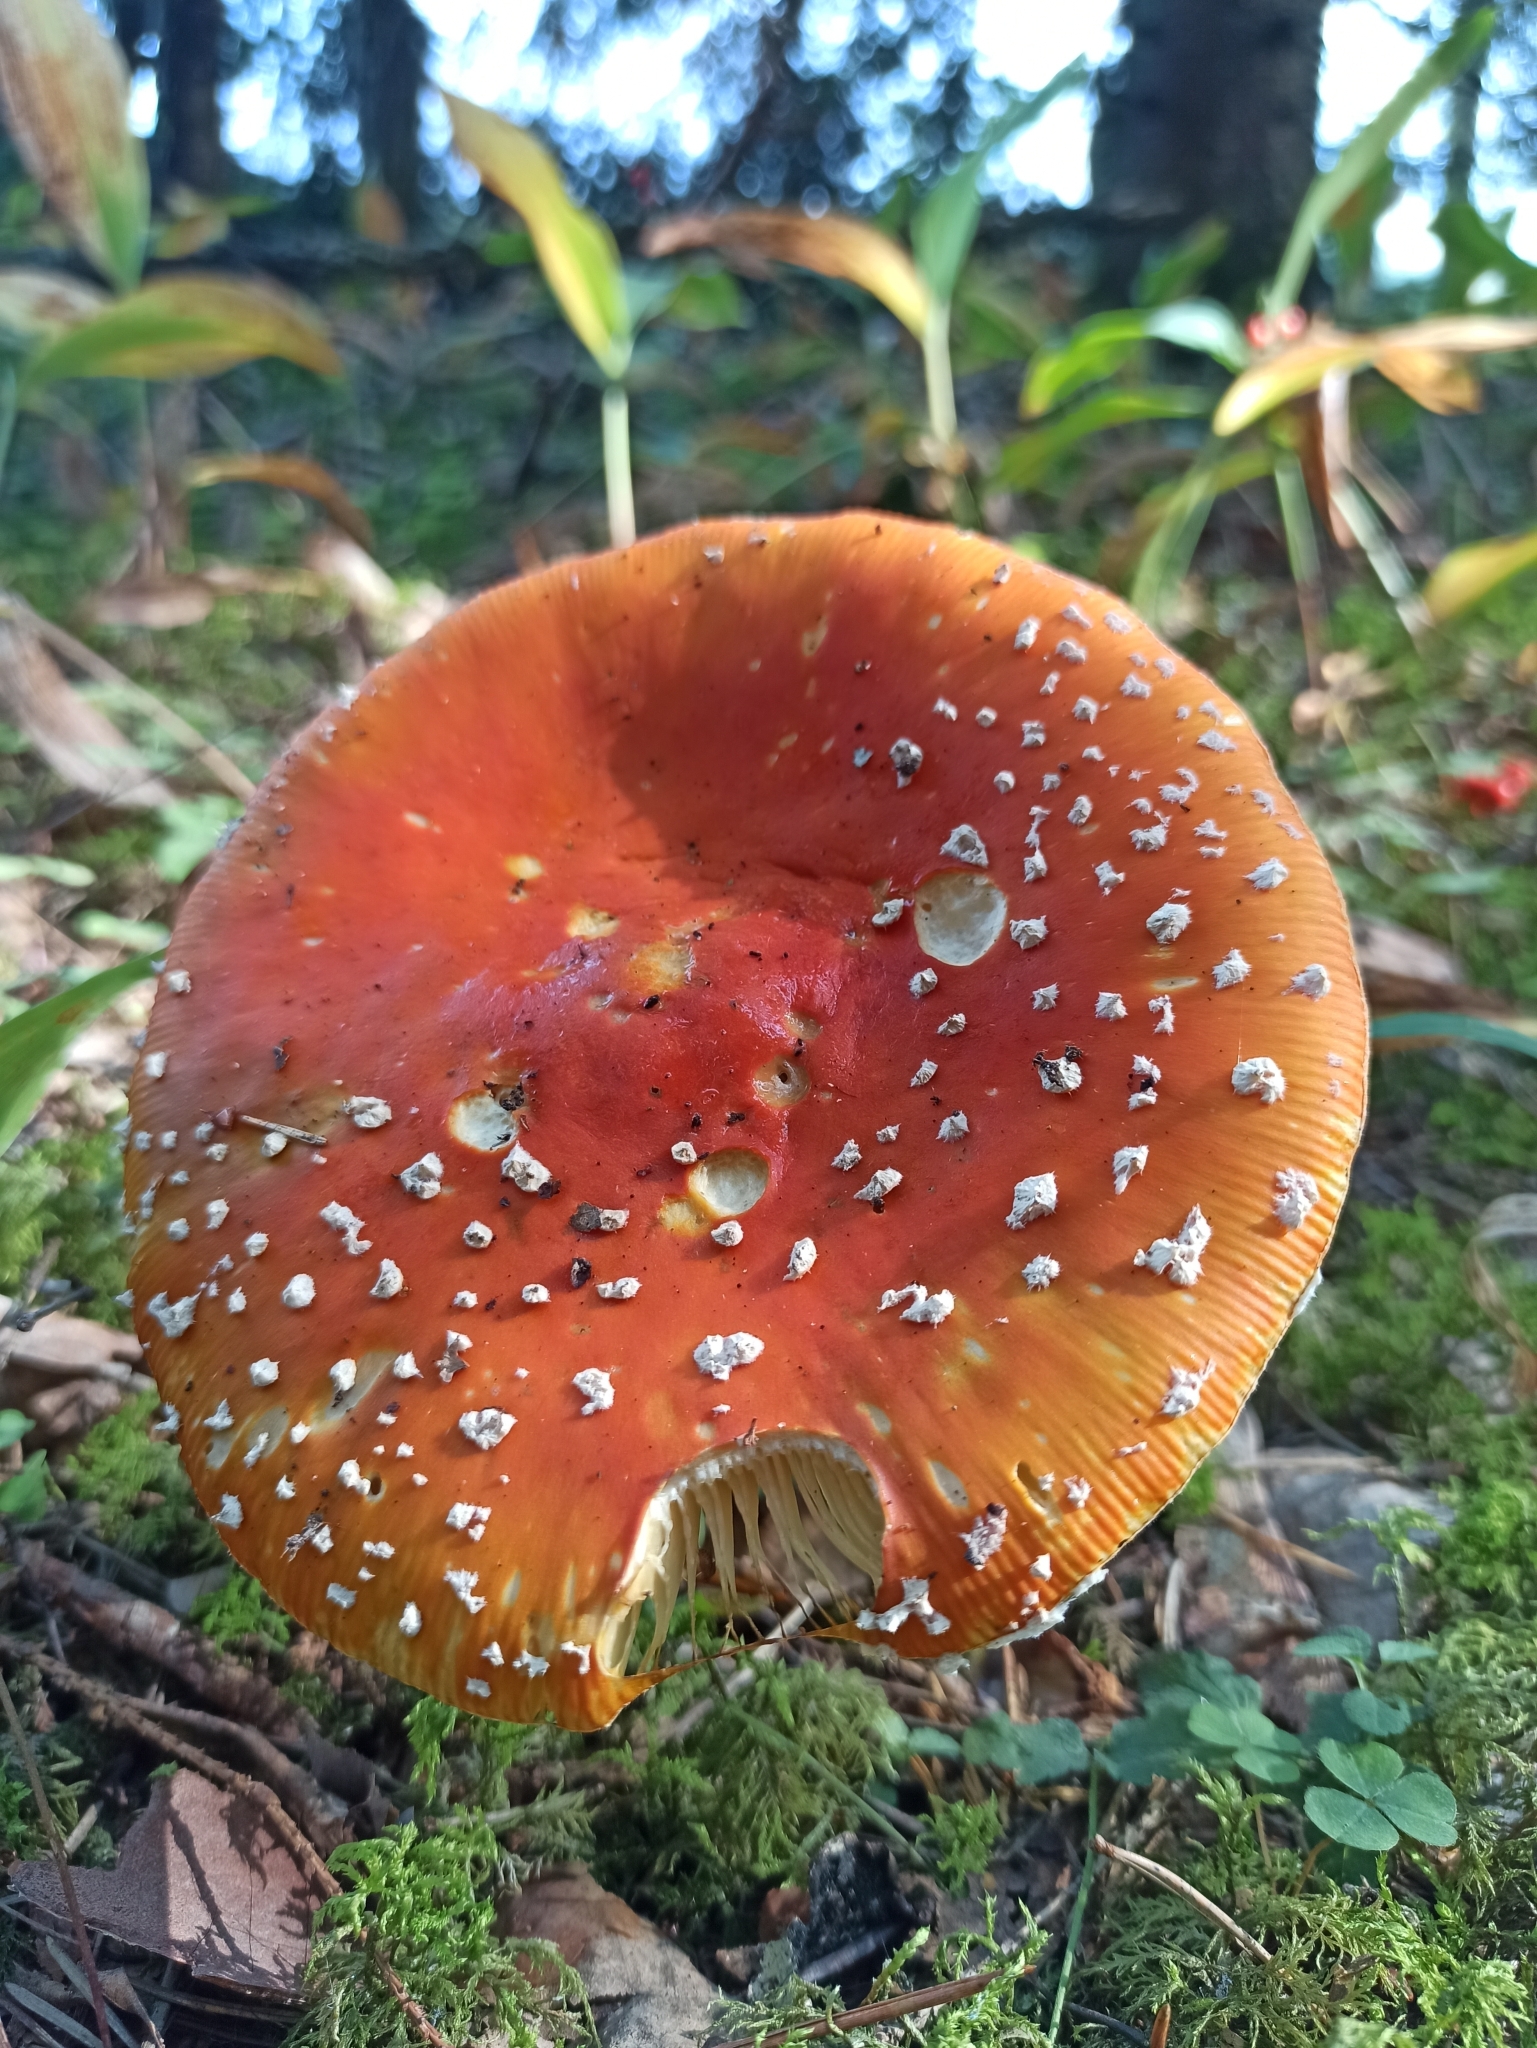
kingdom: Fungi
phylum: Basidiomycota
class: Agaricomycetes
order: Agaricales
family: Amanitaceae
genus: Amanita
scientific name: Amanita muscaria
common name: Fly agaric
